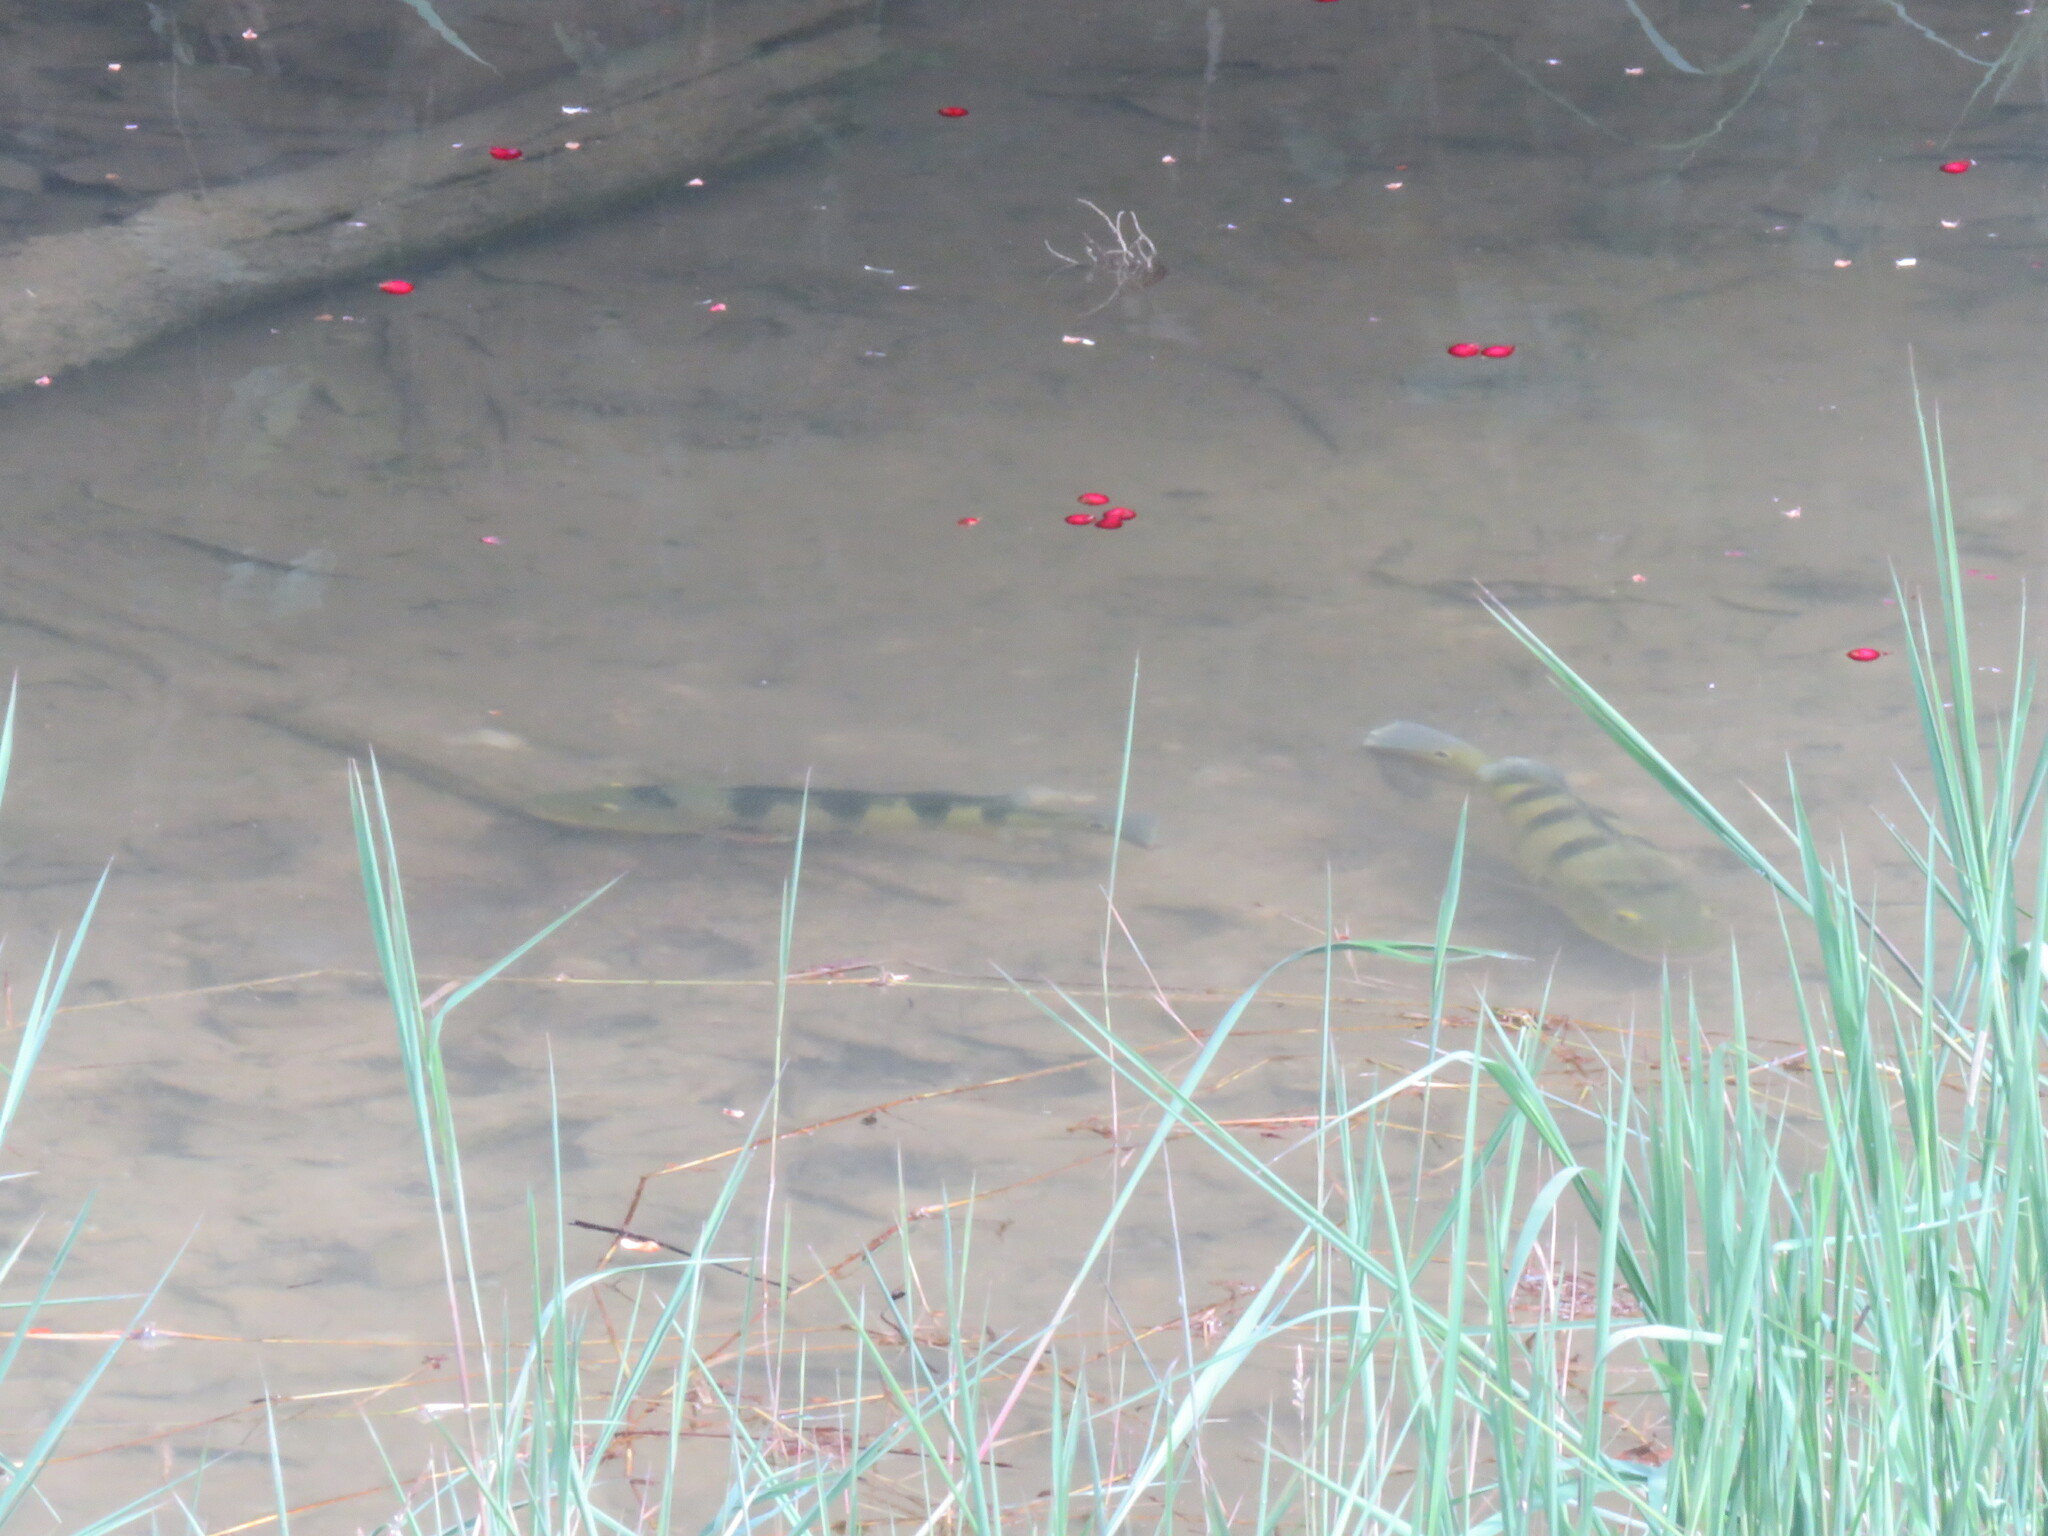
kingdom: Animalia
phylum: Chordata
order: Perciformes
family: Cichlidae
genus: Cichla
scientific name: Cichla ocellaris
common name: Peacock cichlid
